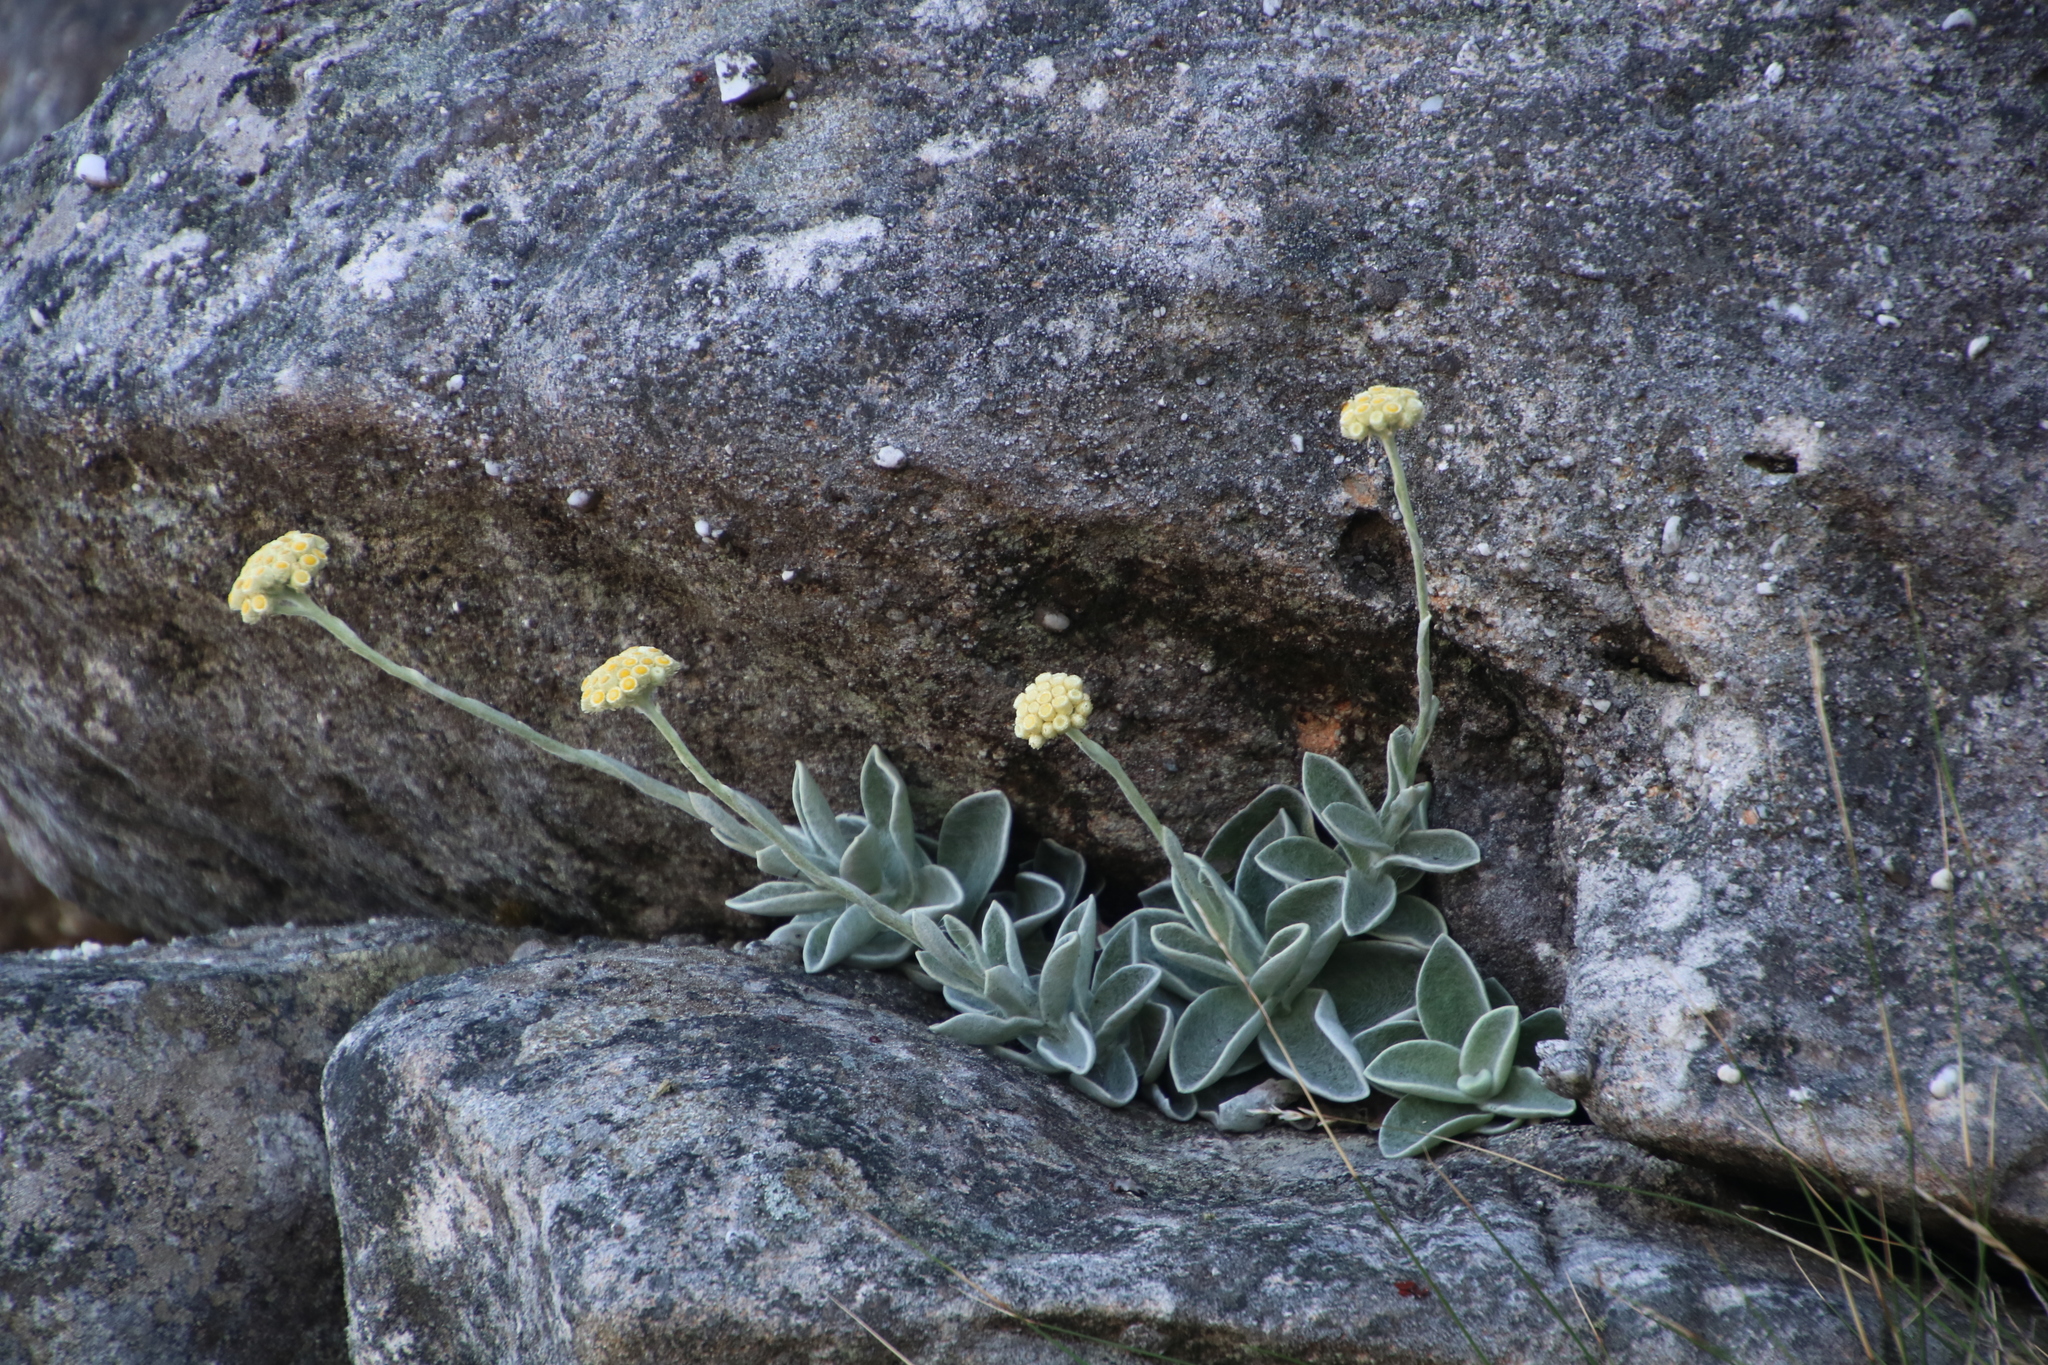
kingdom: Plantae
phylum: Tracheophyta
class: Magnoliopsida
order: Asterales
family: Asteraceae
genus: Helichrysum
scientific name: Helichrysum grandiflorum
